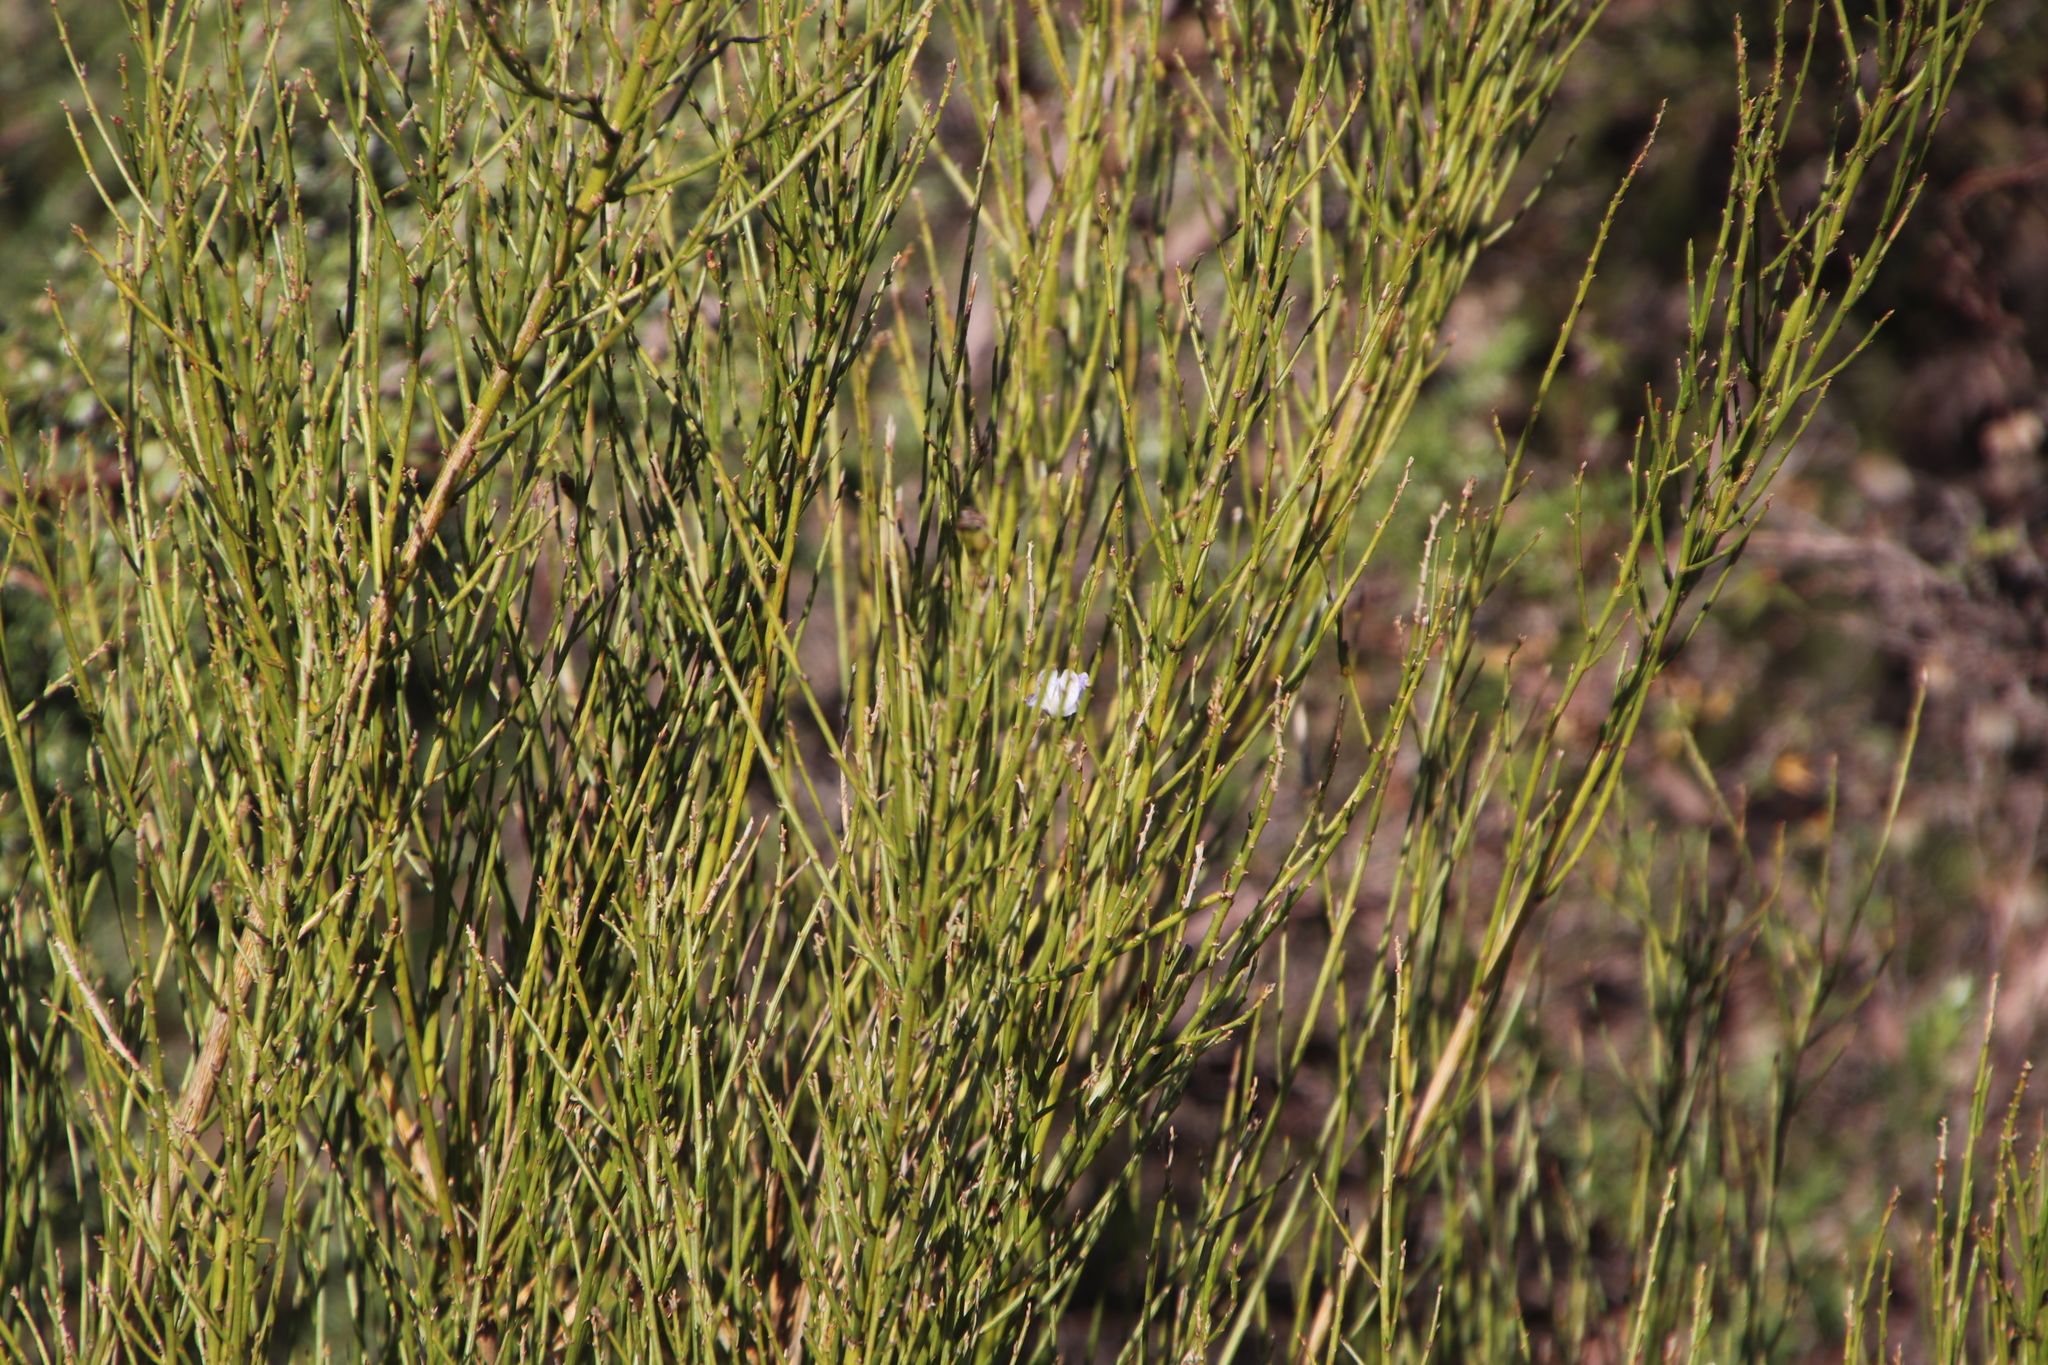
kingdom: Plantae
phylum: Tracheophyta
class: Magnoliopsida
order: Fabales
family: Fabaceae
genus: Psoralea
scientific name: Psoralea usitata
